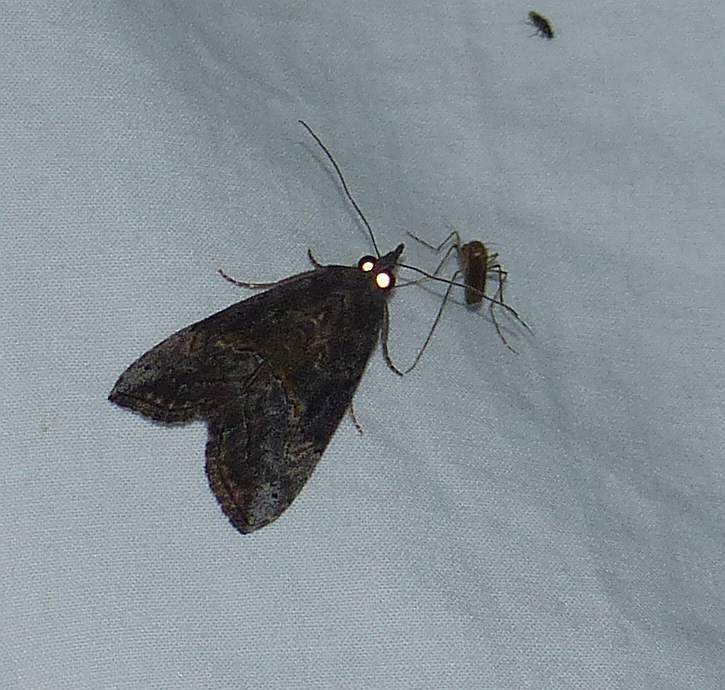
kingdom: Animalia
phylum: Arthropoda
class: Insecta
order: Lepidoptera
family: Erebidae
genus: Hypena
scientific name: Hypena scabra
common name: Green cloverworm
